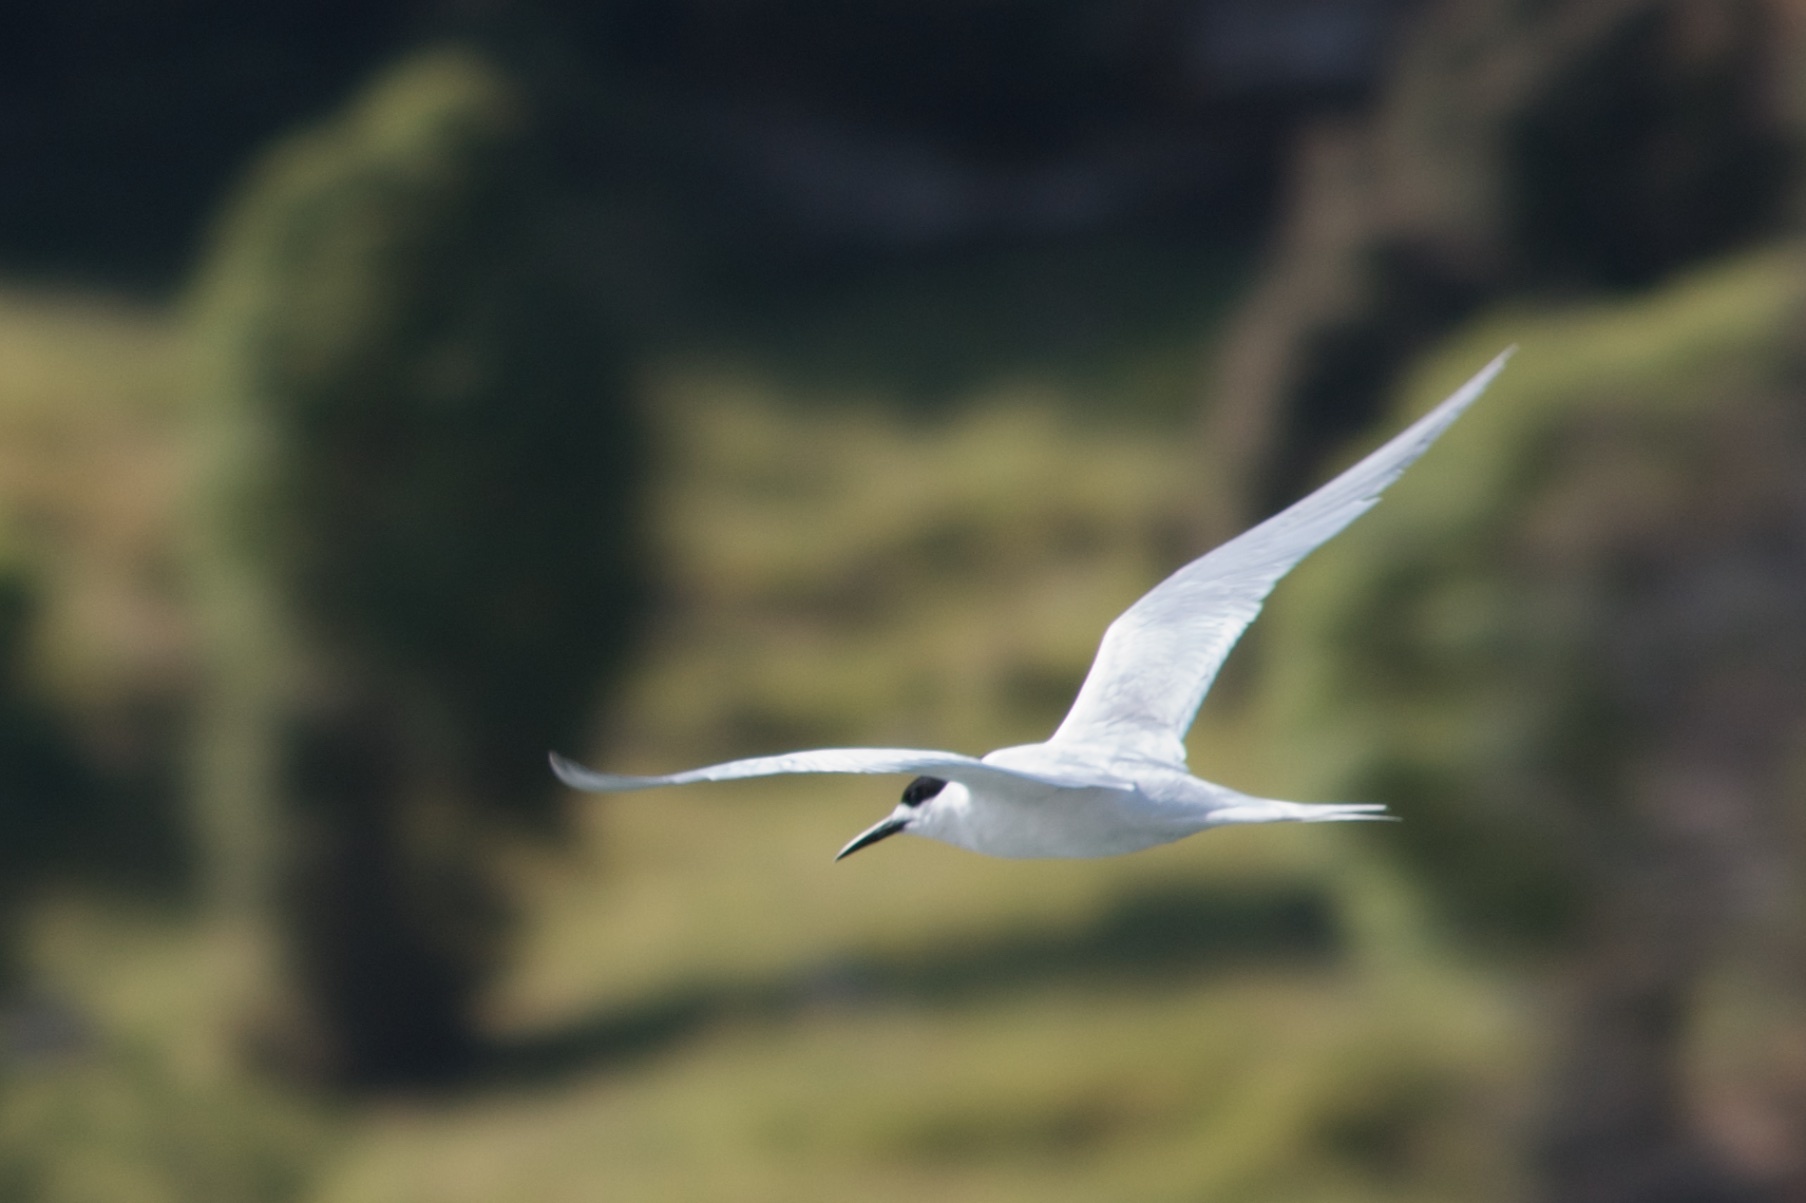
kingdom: Animalia
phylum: Chordata
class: Aves
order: Charadriiformes
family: Laridae
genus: Sterna
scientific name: Sterna striata
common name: White-fronted tern
